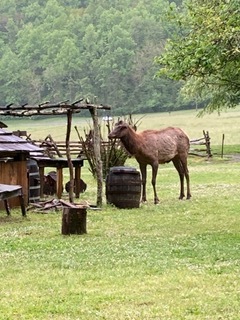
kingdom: Animalia
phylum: Chordata
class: Mammalia
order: Artiodactyla
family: Cervidae
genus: Cervus
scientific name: Cervus elaphus
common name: Red deer
